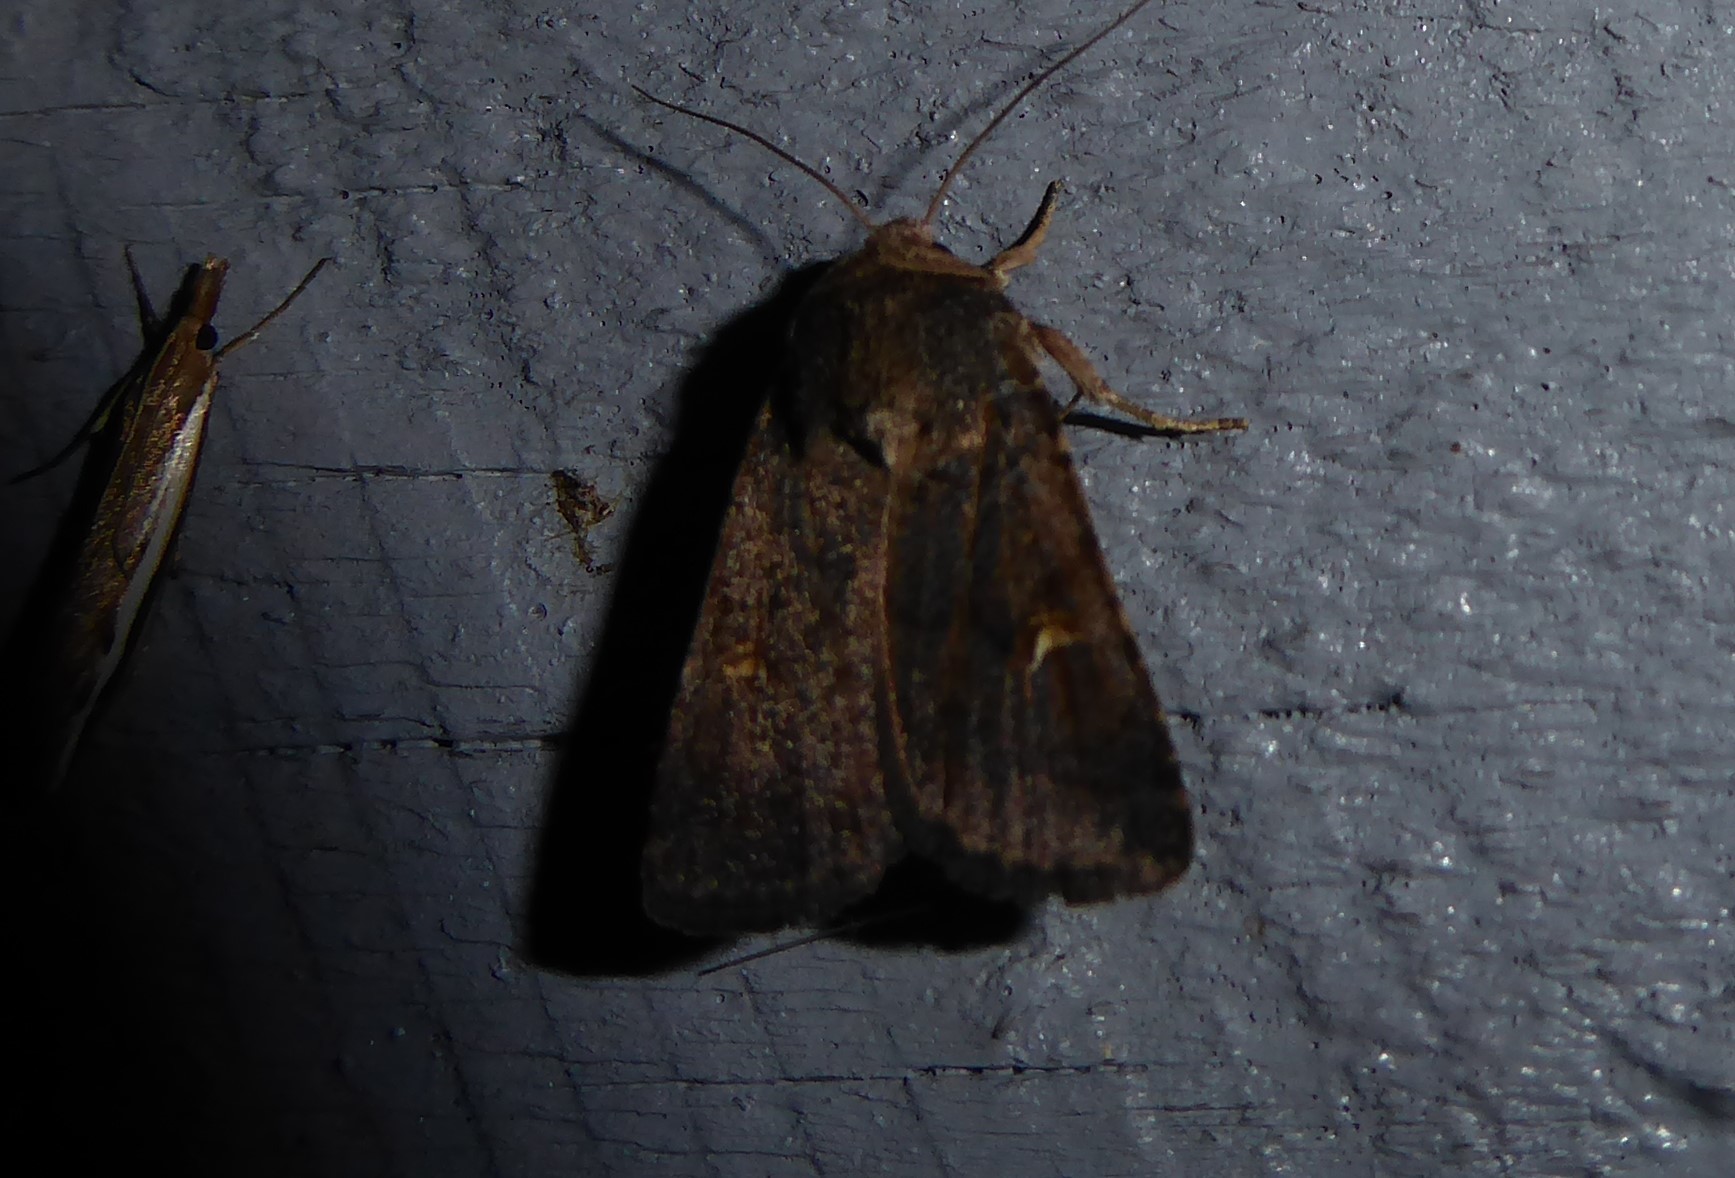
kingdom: Animalia
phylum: Arthropoda
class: Insecta
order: Lepidoptera
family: Noctuidae
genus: Proteuxoa
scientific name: Proteuxoa tetronycha
